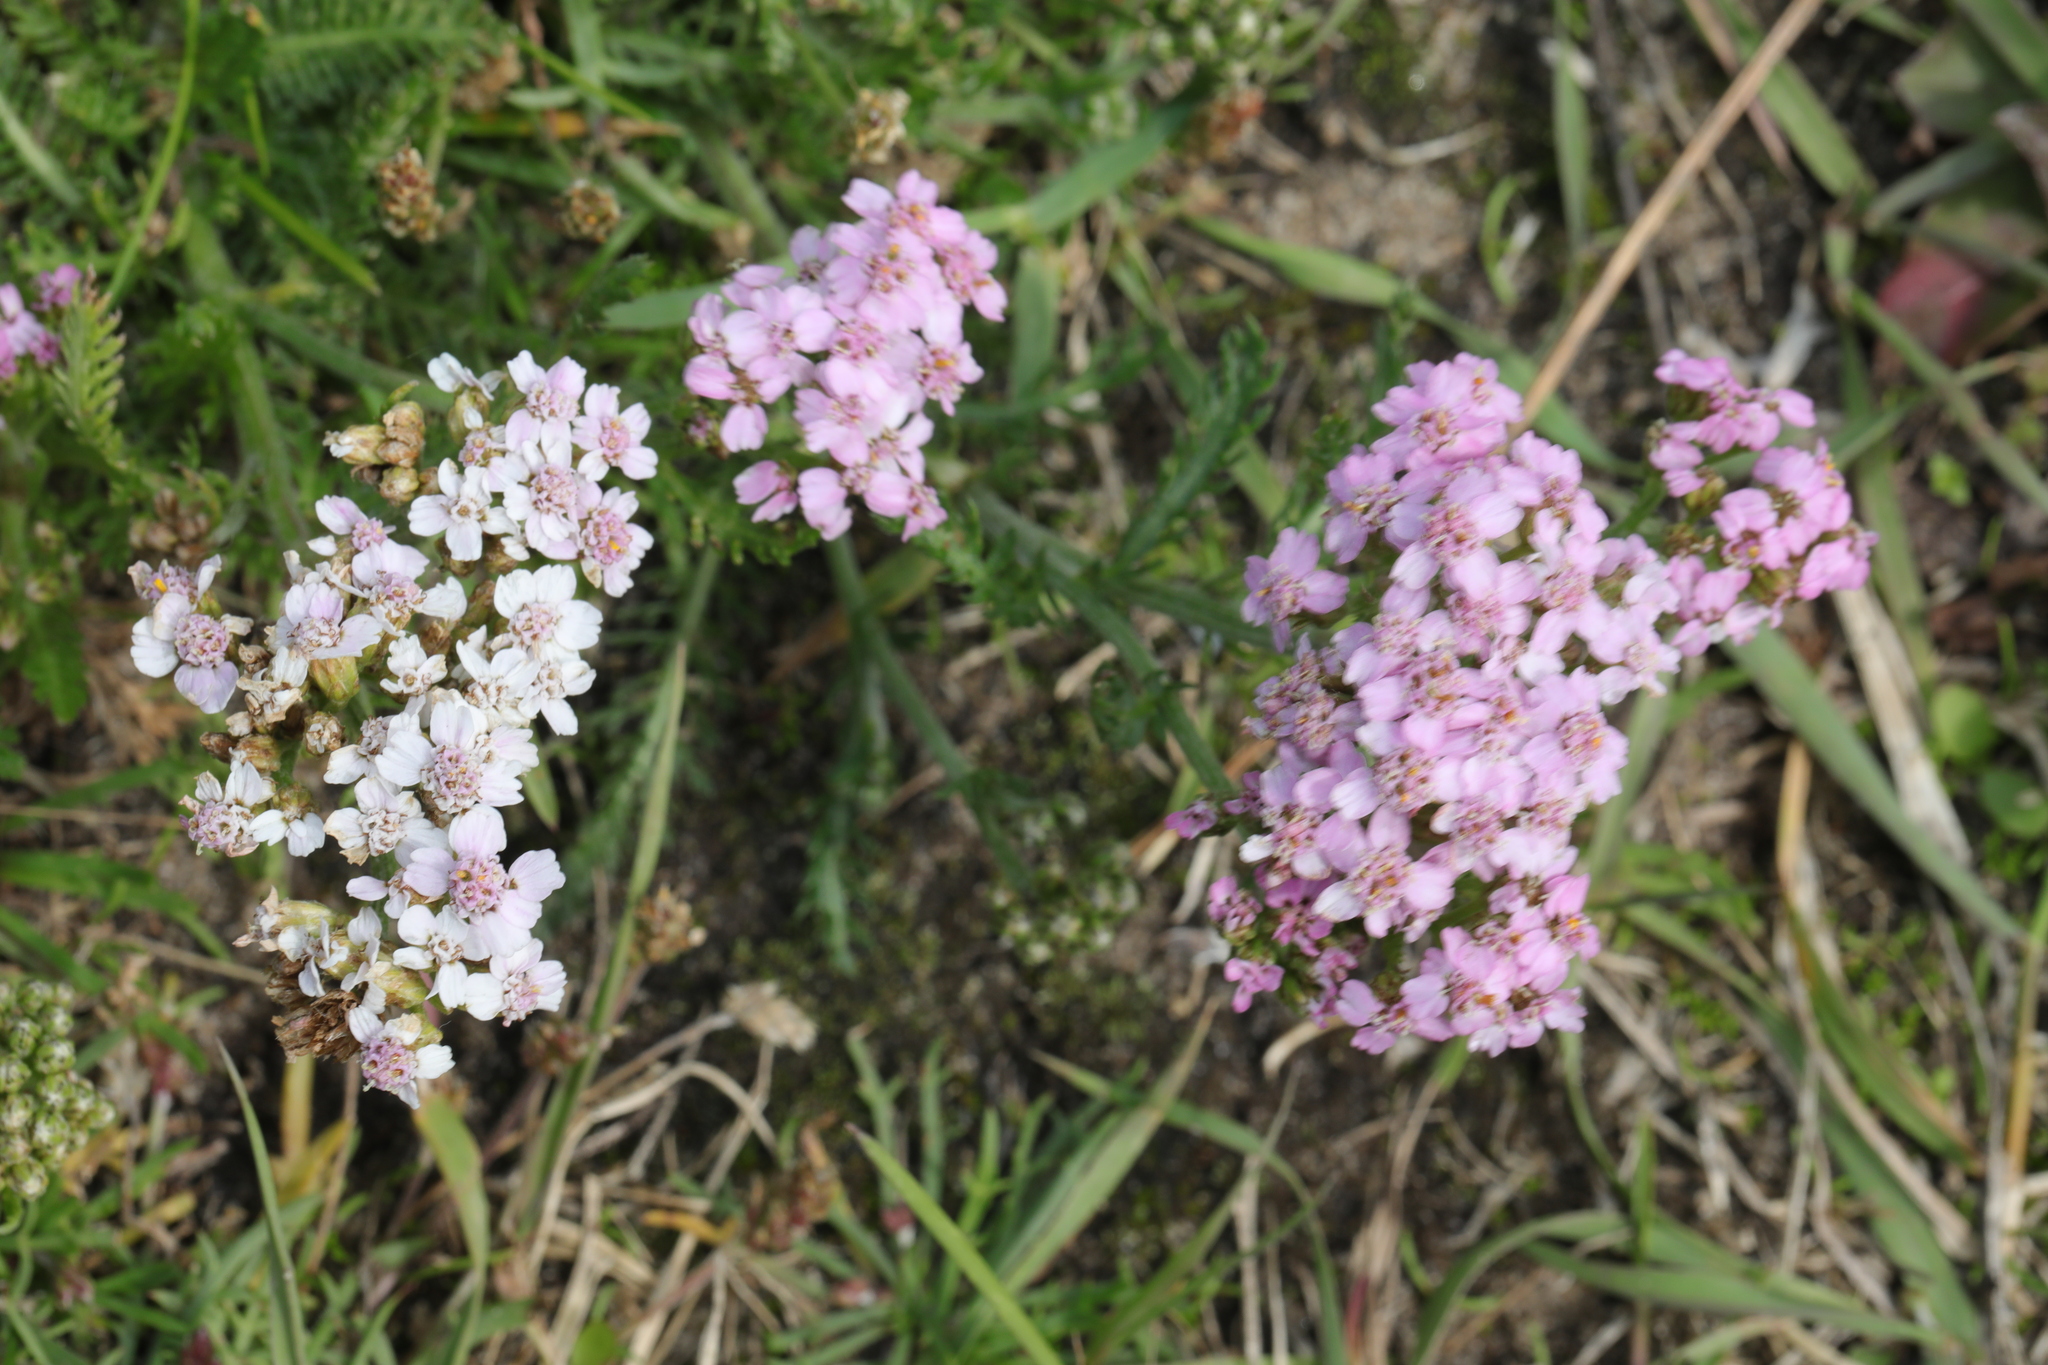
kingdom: Plantae
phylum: Tracheophyta
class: Magnoliopsida
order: Asterales
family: Asteraceae
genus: Achillea
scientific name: Achillea millefolium
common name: Yarrow
